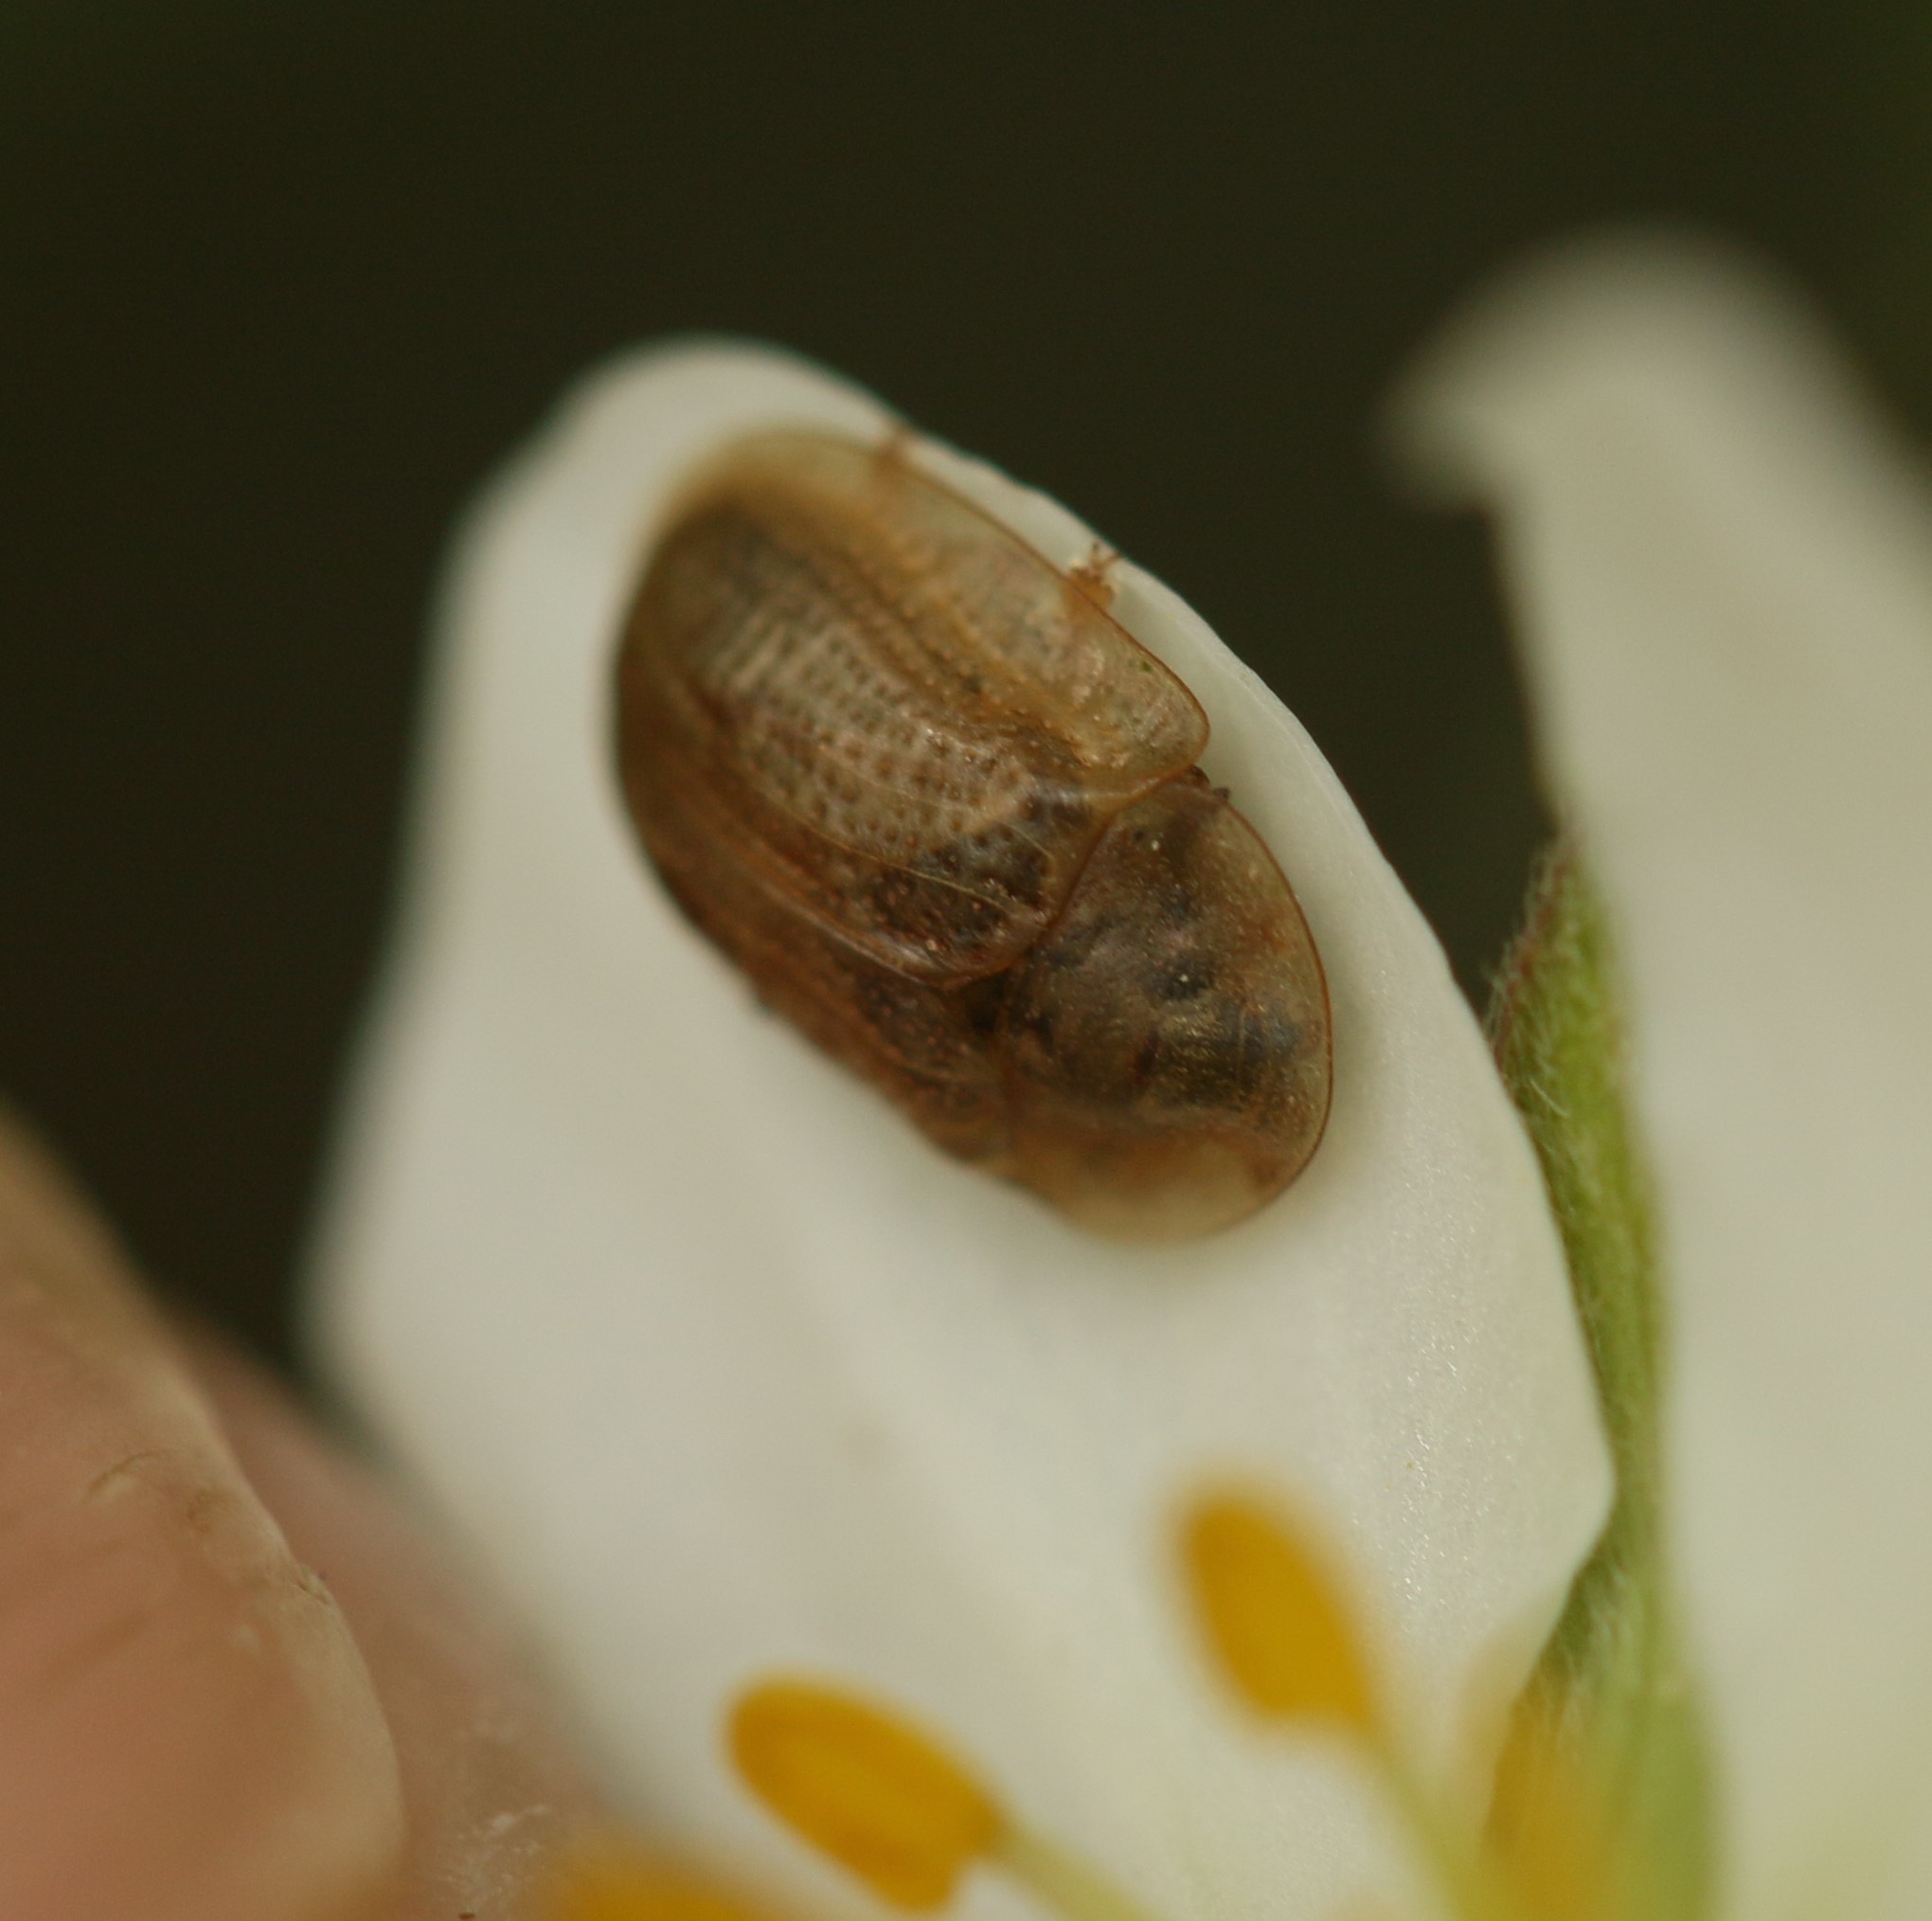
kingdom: Animalia
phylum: Arthropoda
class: Insecta
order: Coleoptera
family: Chrysomelidae
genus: Cassida
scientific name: Cassida flaveola
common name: Pale tortoise beetle
